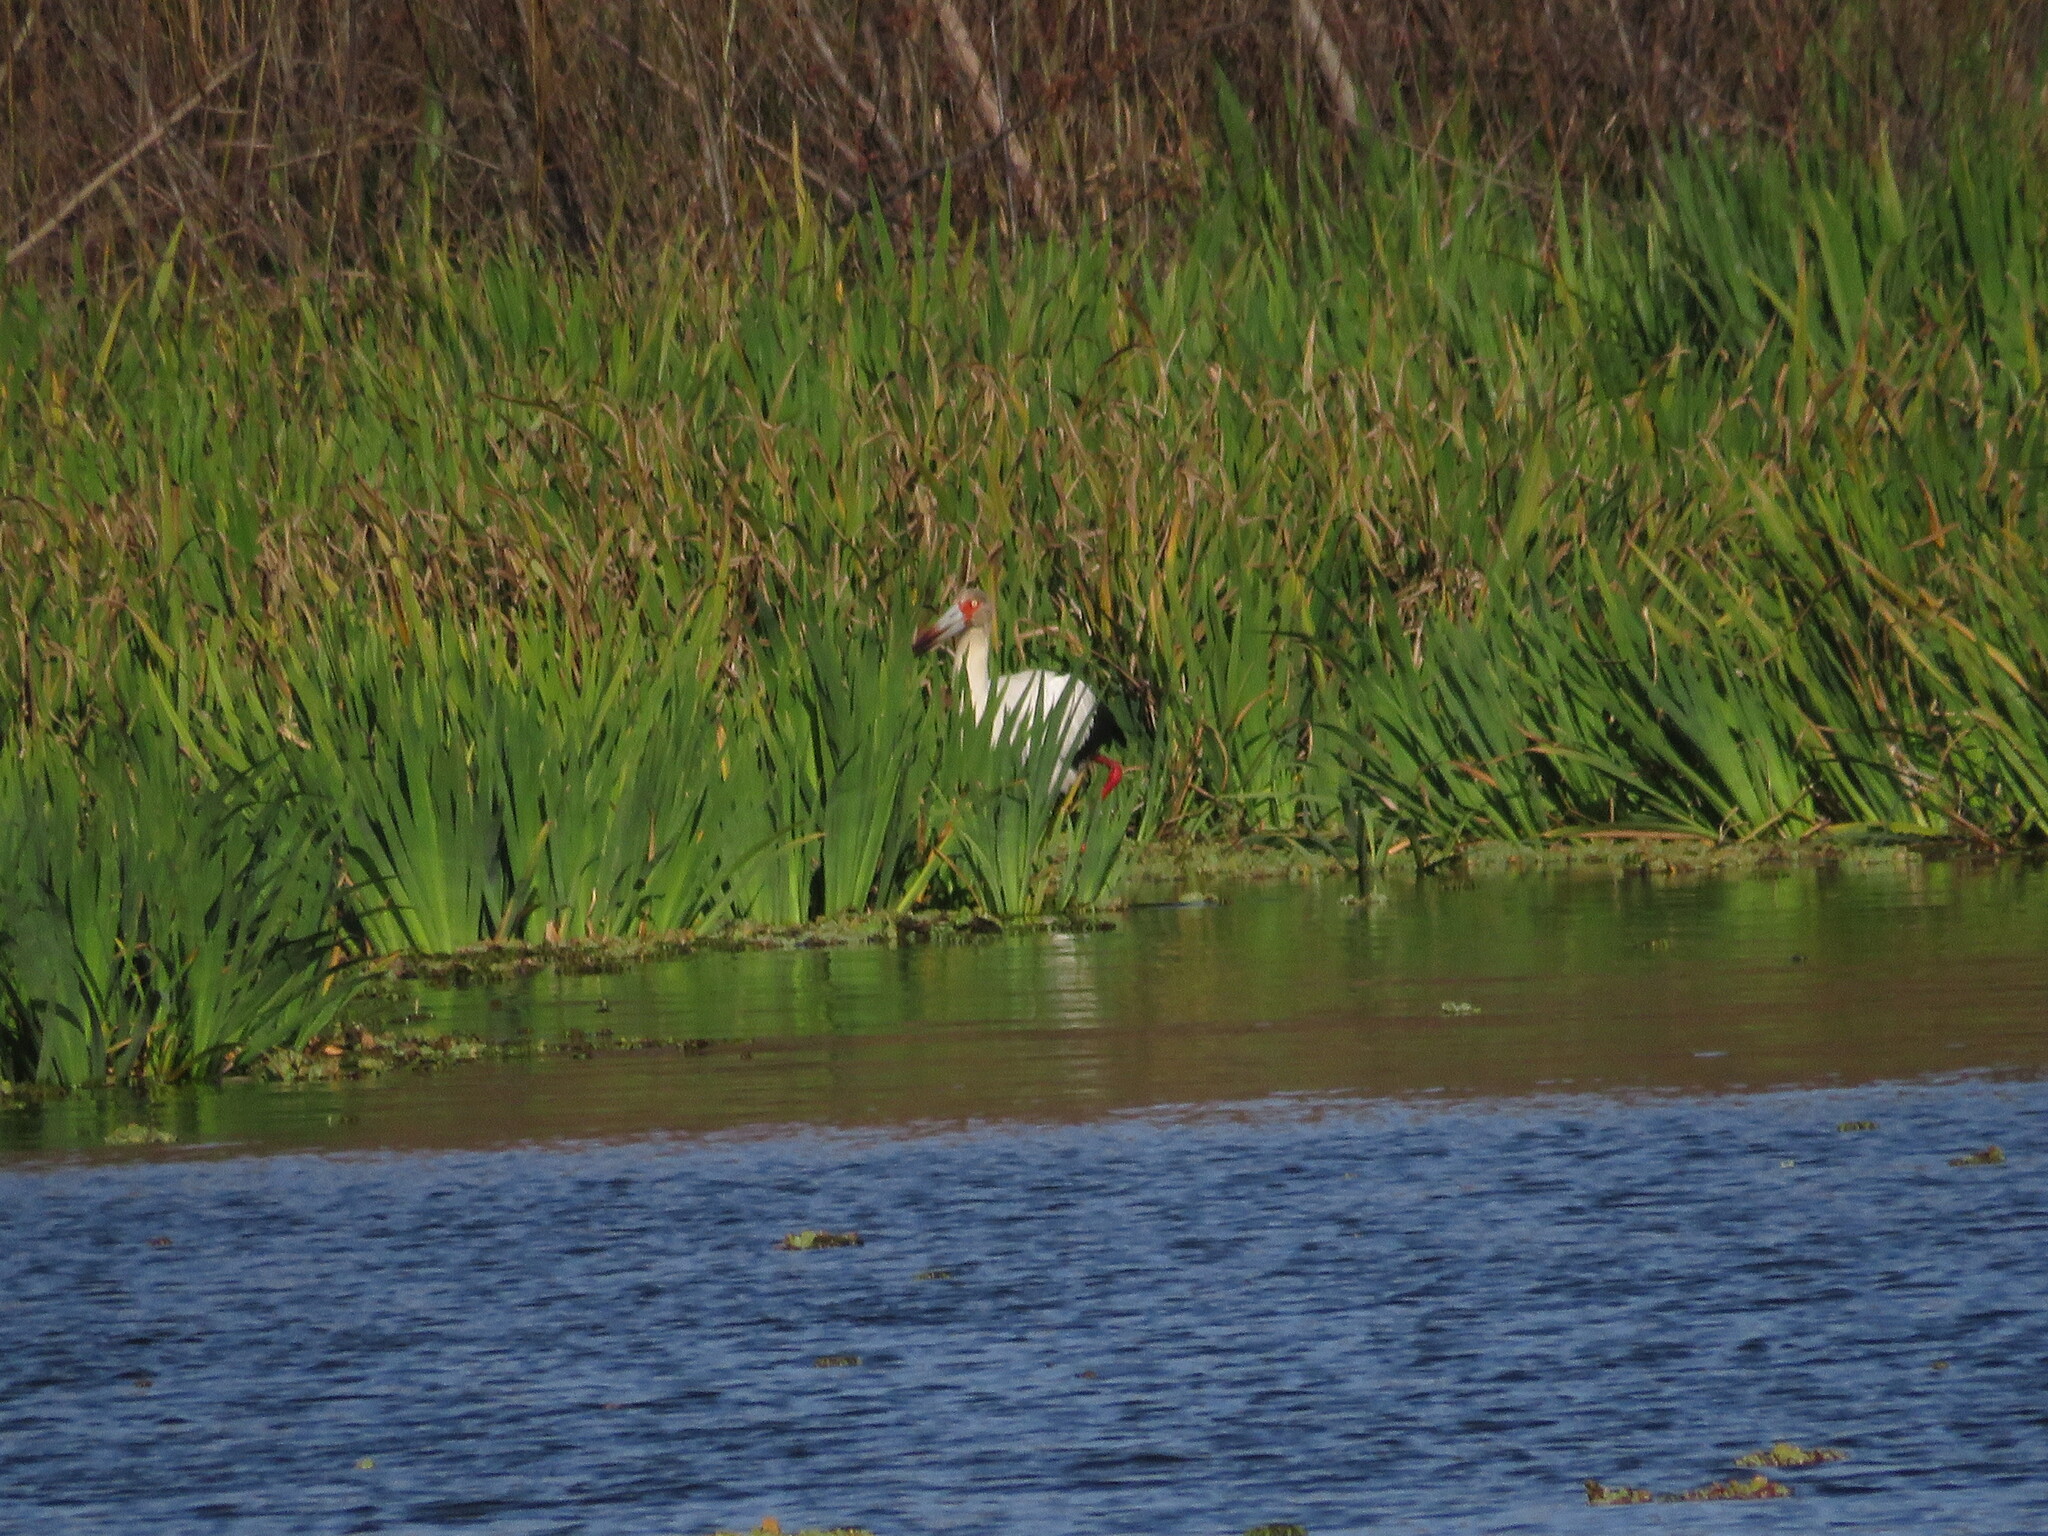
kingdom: Animalia
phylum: Chordata
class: Aves
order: Ciconiiformes
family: Ciconiidae
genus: Ciconia
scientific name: Ciconia maguari
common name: Maguari stork
